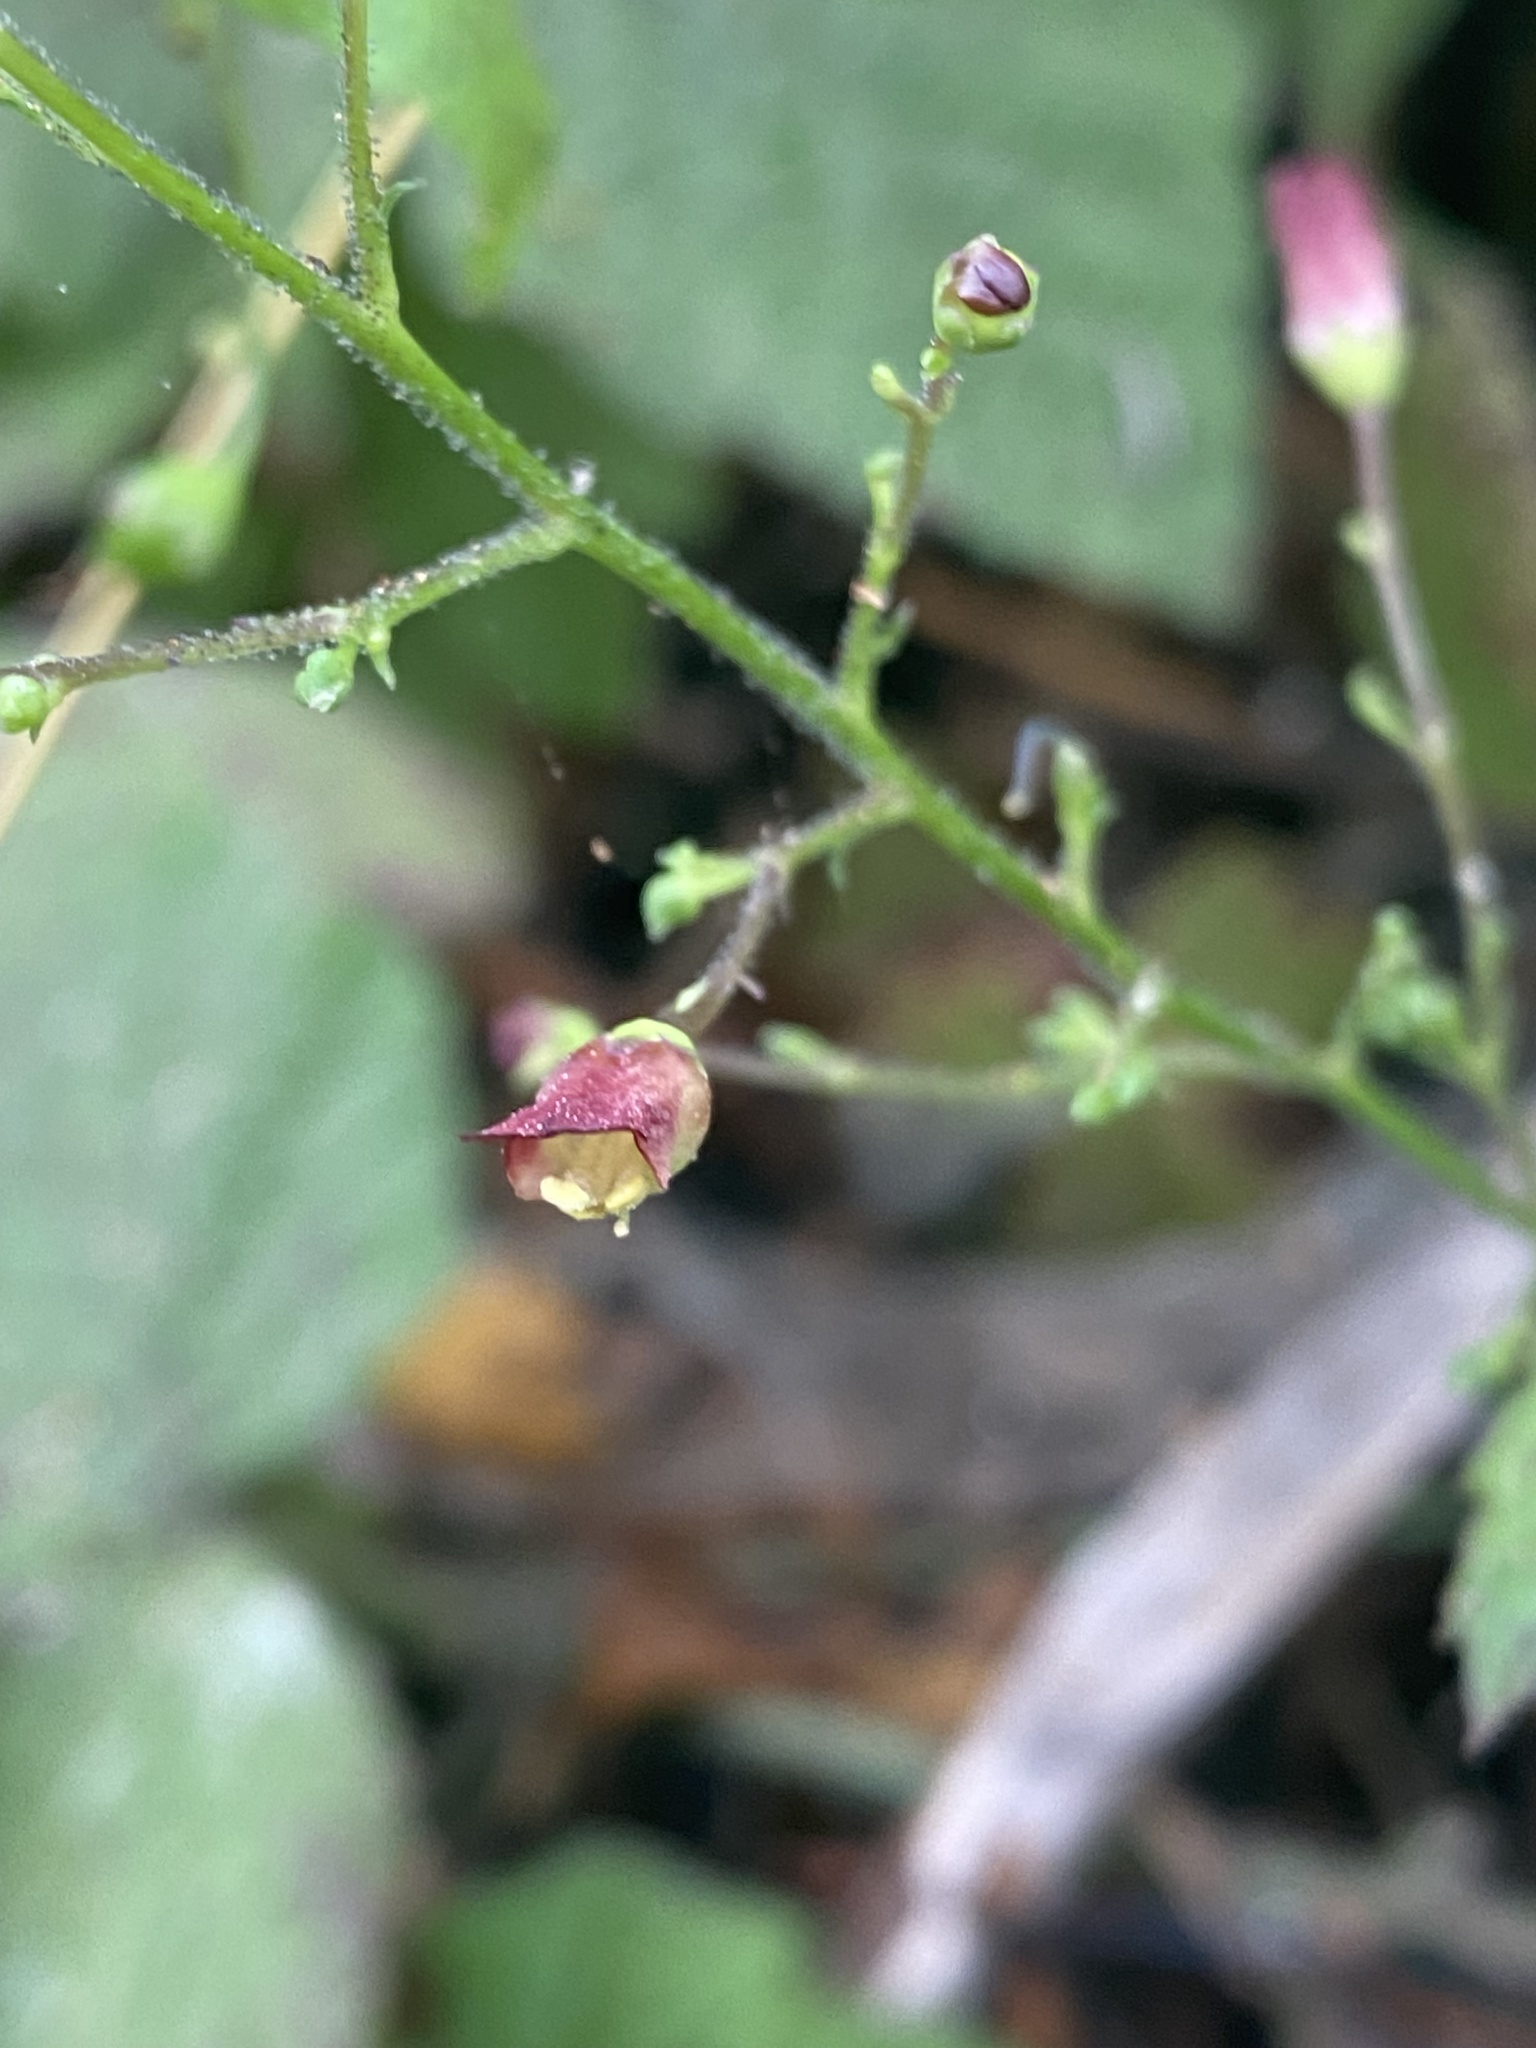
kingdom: Plantae
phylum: Tracheophyta
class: Magnoliopsida
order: Lamiales
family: Scrophulariaceae
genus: Scrophularia
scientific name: Scrophularia californica
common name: California figwort
